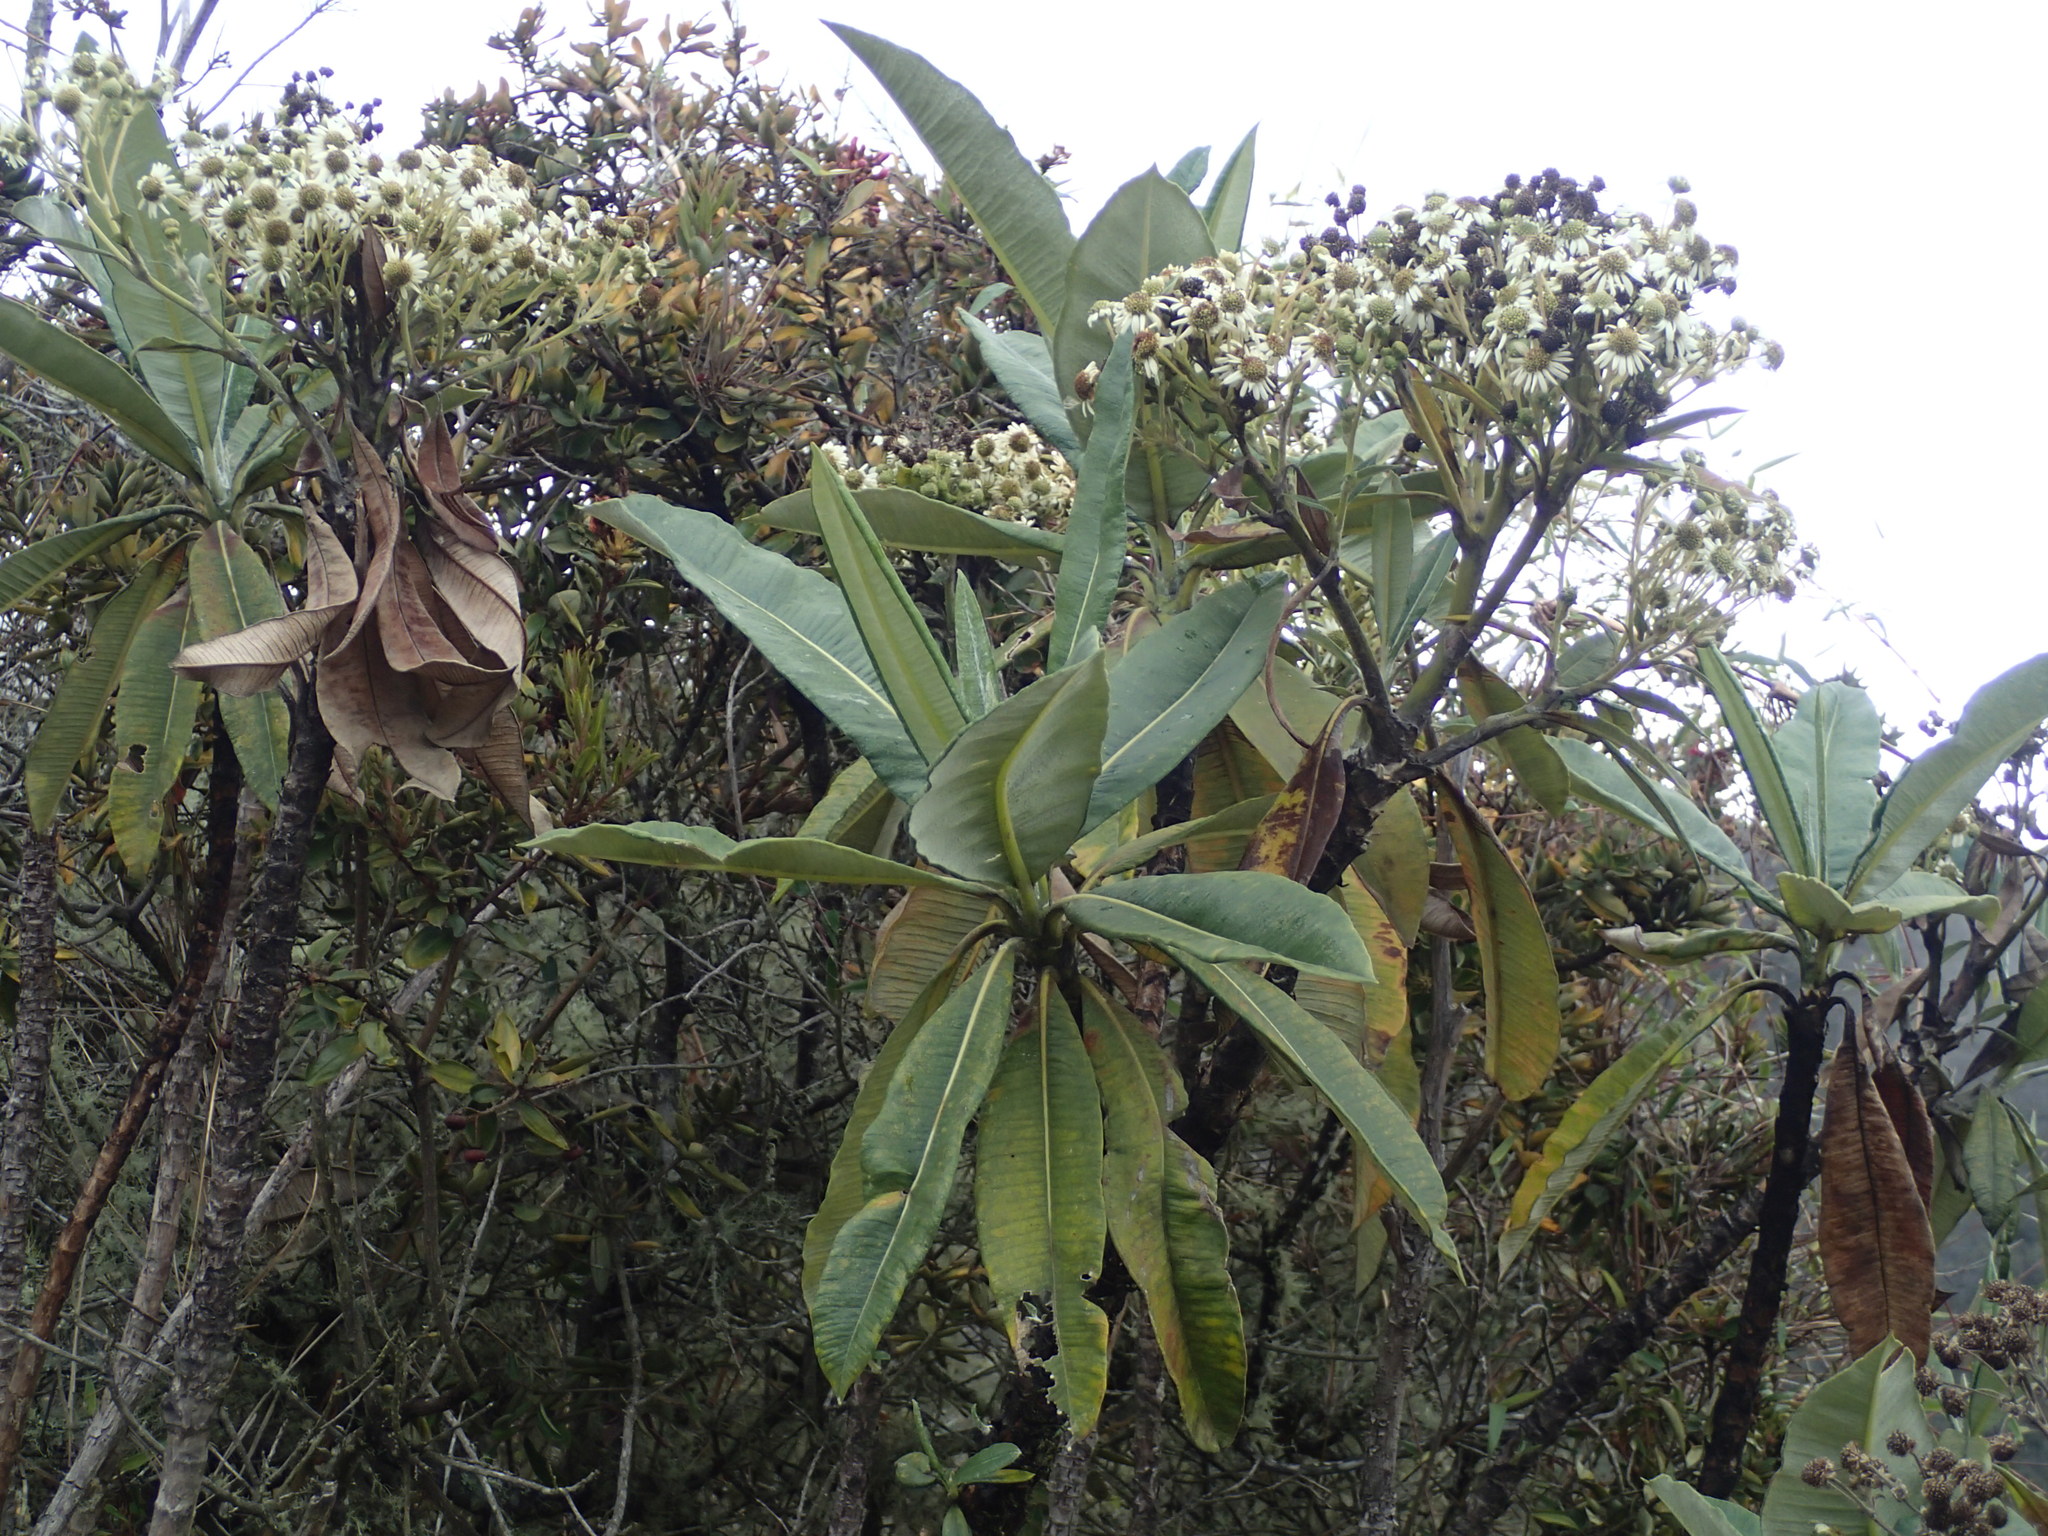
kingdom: Plantae
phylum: Tracheophyta
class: Magnoliopsida
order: Asterales
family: Asteraceae
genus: Espeletia
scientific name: Espeletia neriifolia
